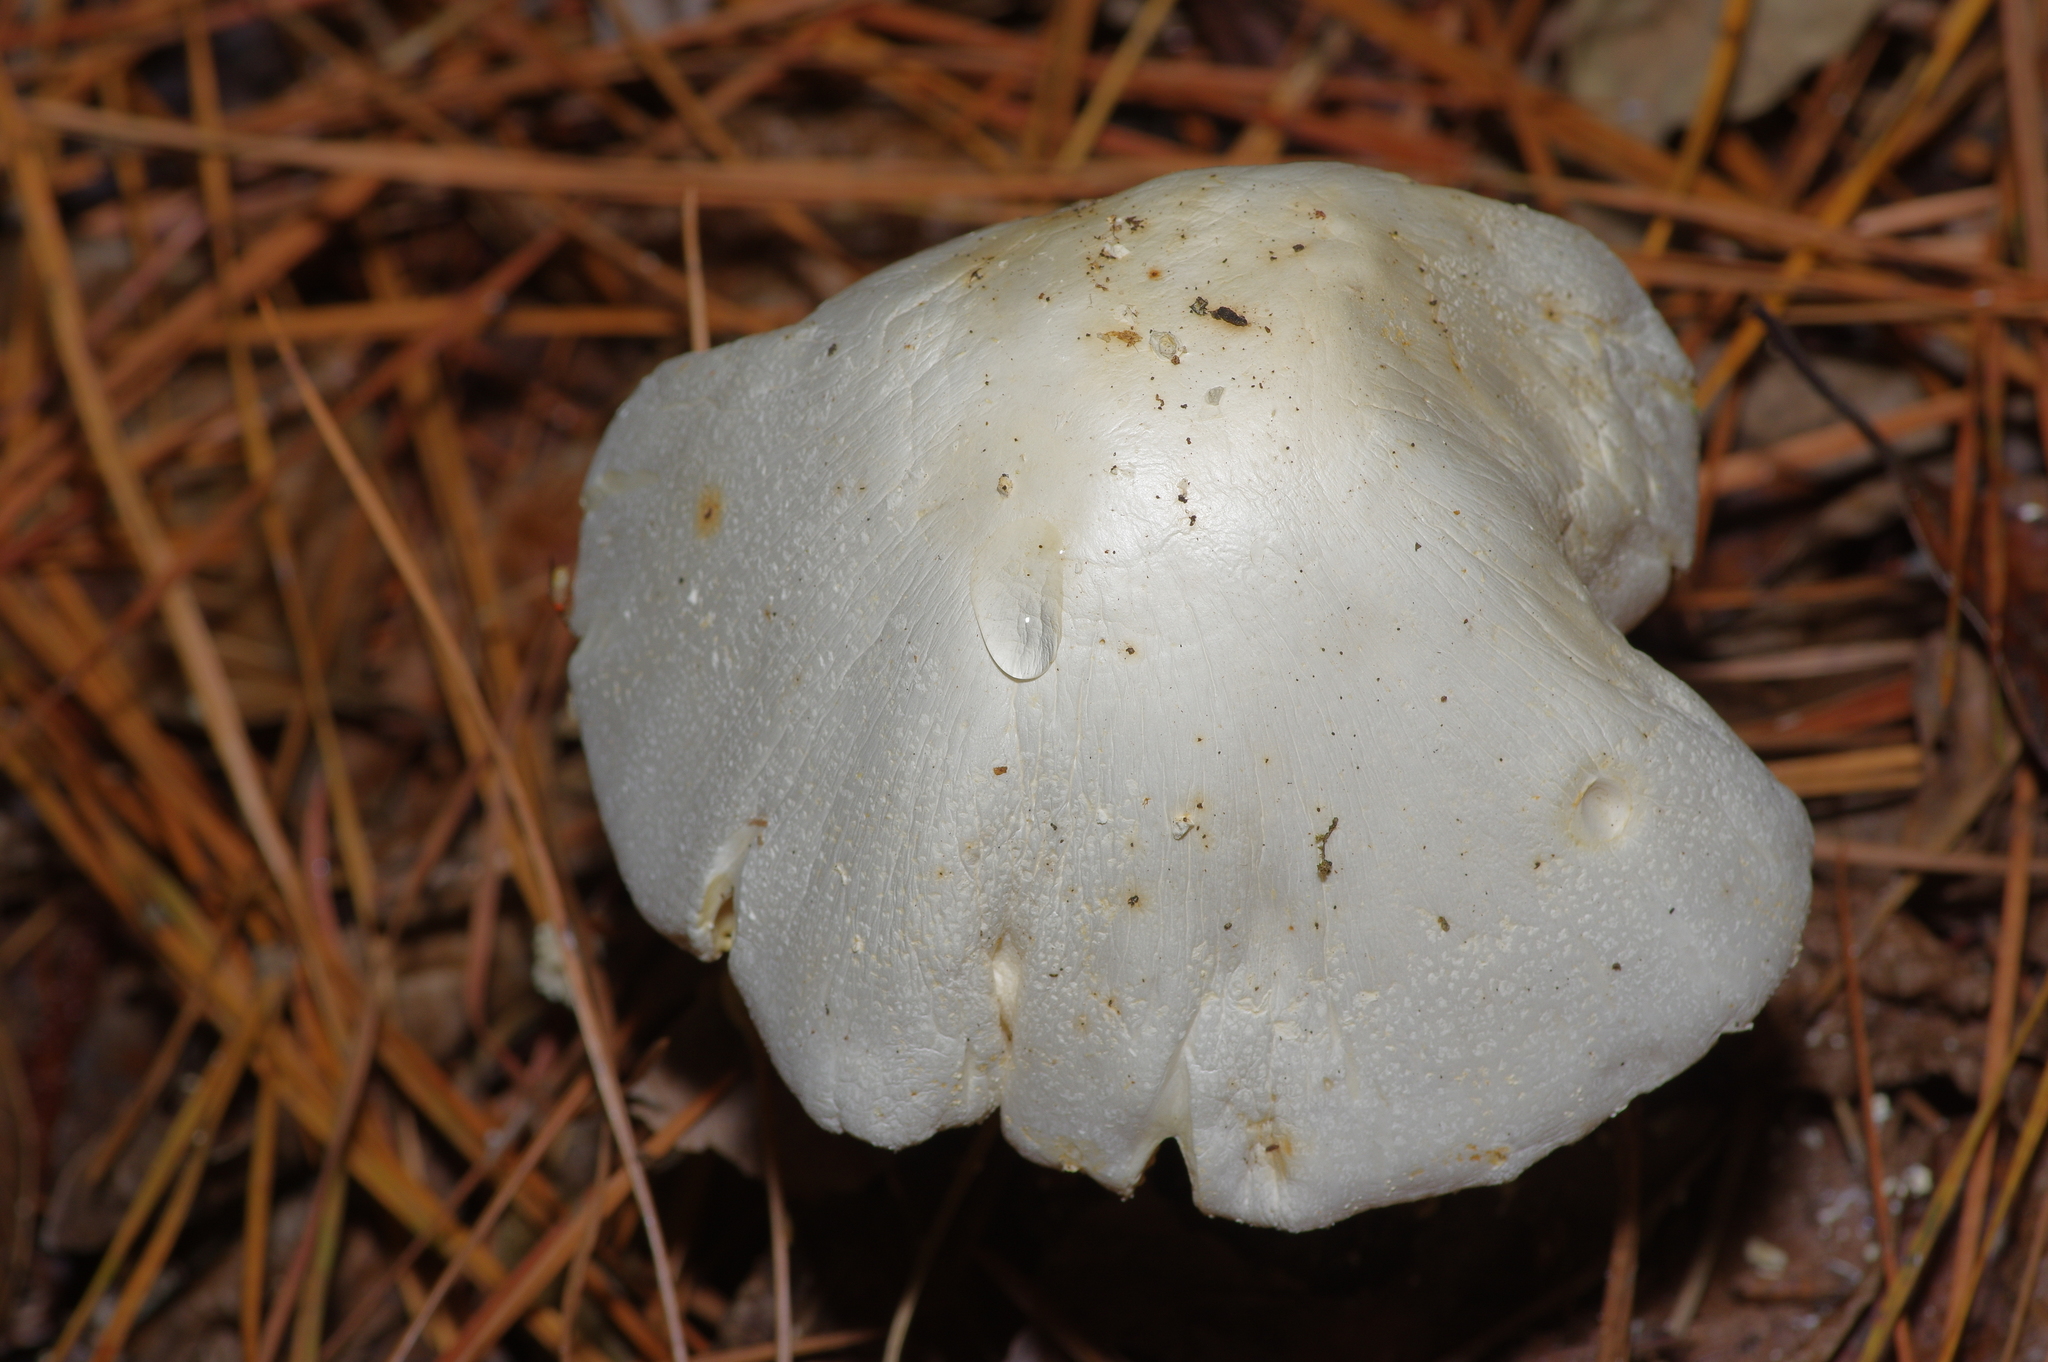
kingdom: Fungi
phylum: Basidiomycota
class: Agaricomycetes
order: Agaricales
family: Amanitaceae
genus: Amanita
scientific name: Amanita polypyramis
